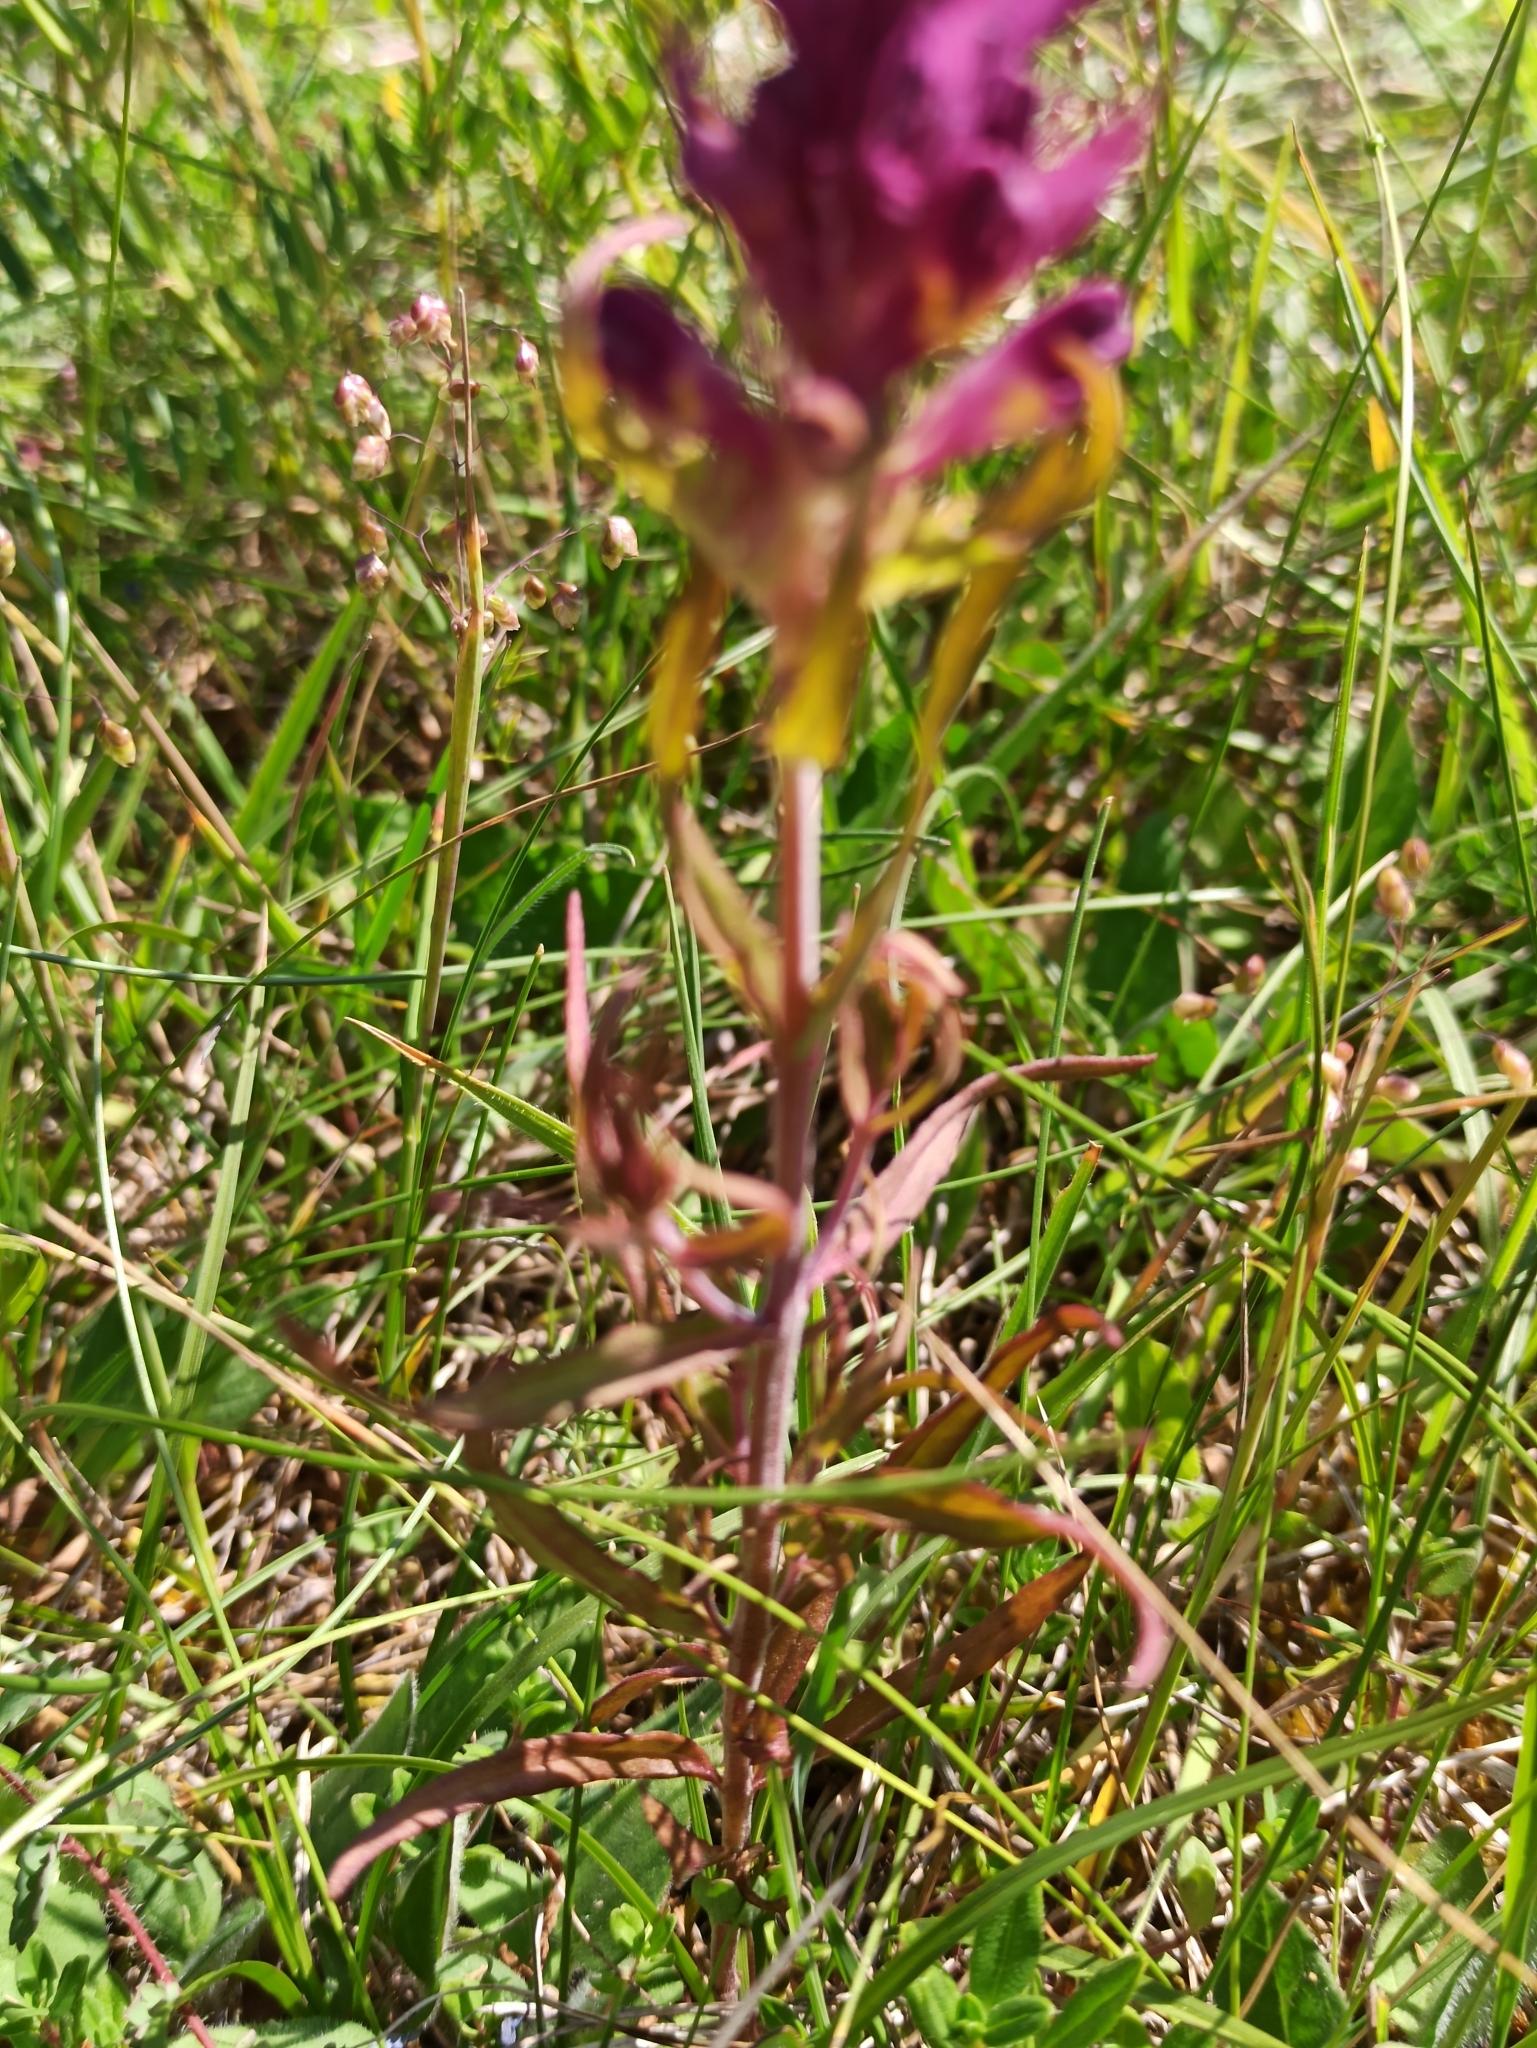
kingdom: Plantae
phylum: Tracheophyta
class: Magnoliopsida
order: Lamiales
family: Orobanchaceae
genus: Melampyrum
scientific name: Melampyrum arvense
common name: Field cow-wheat
